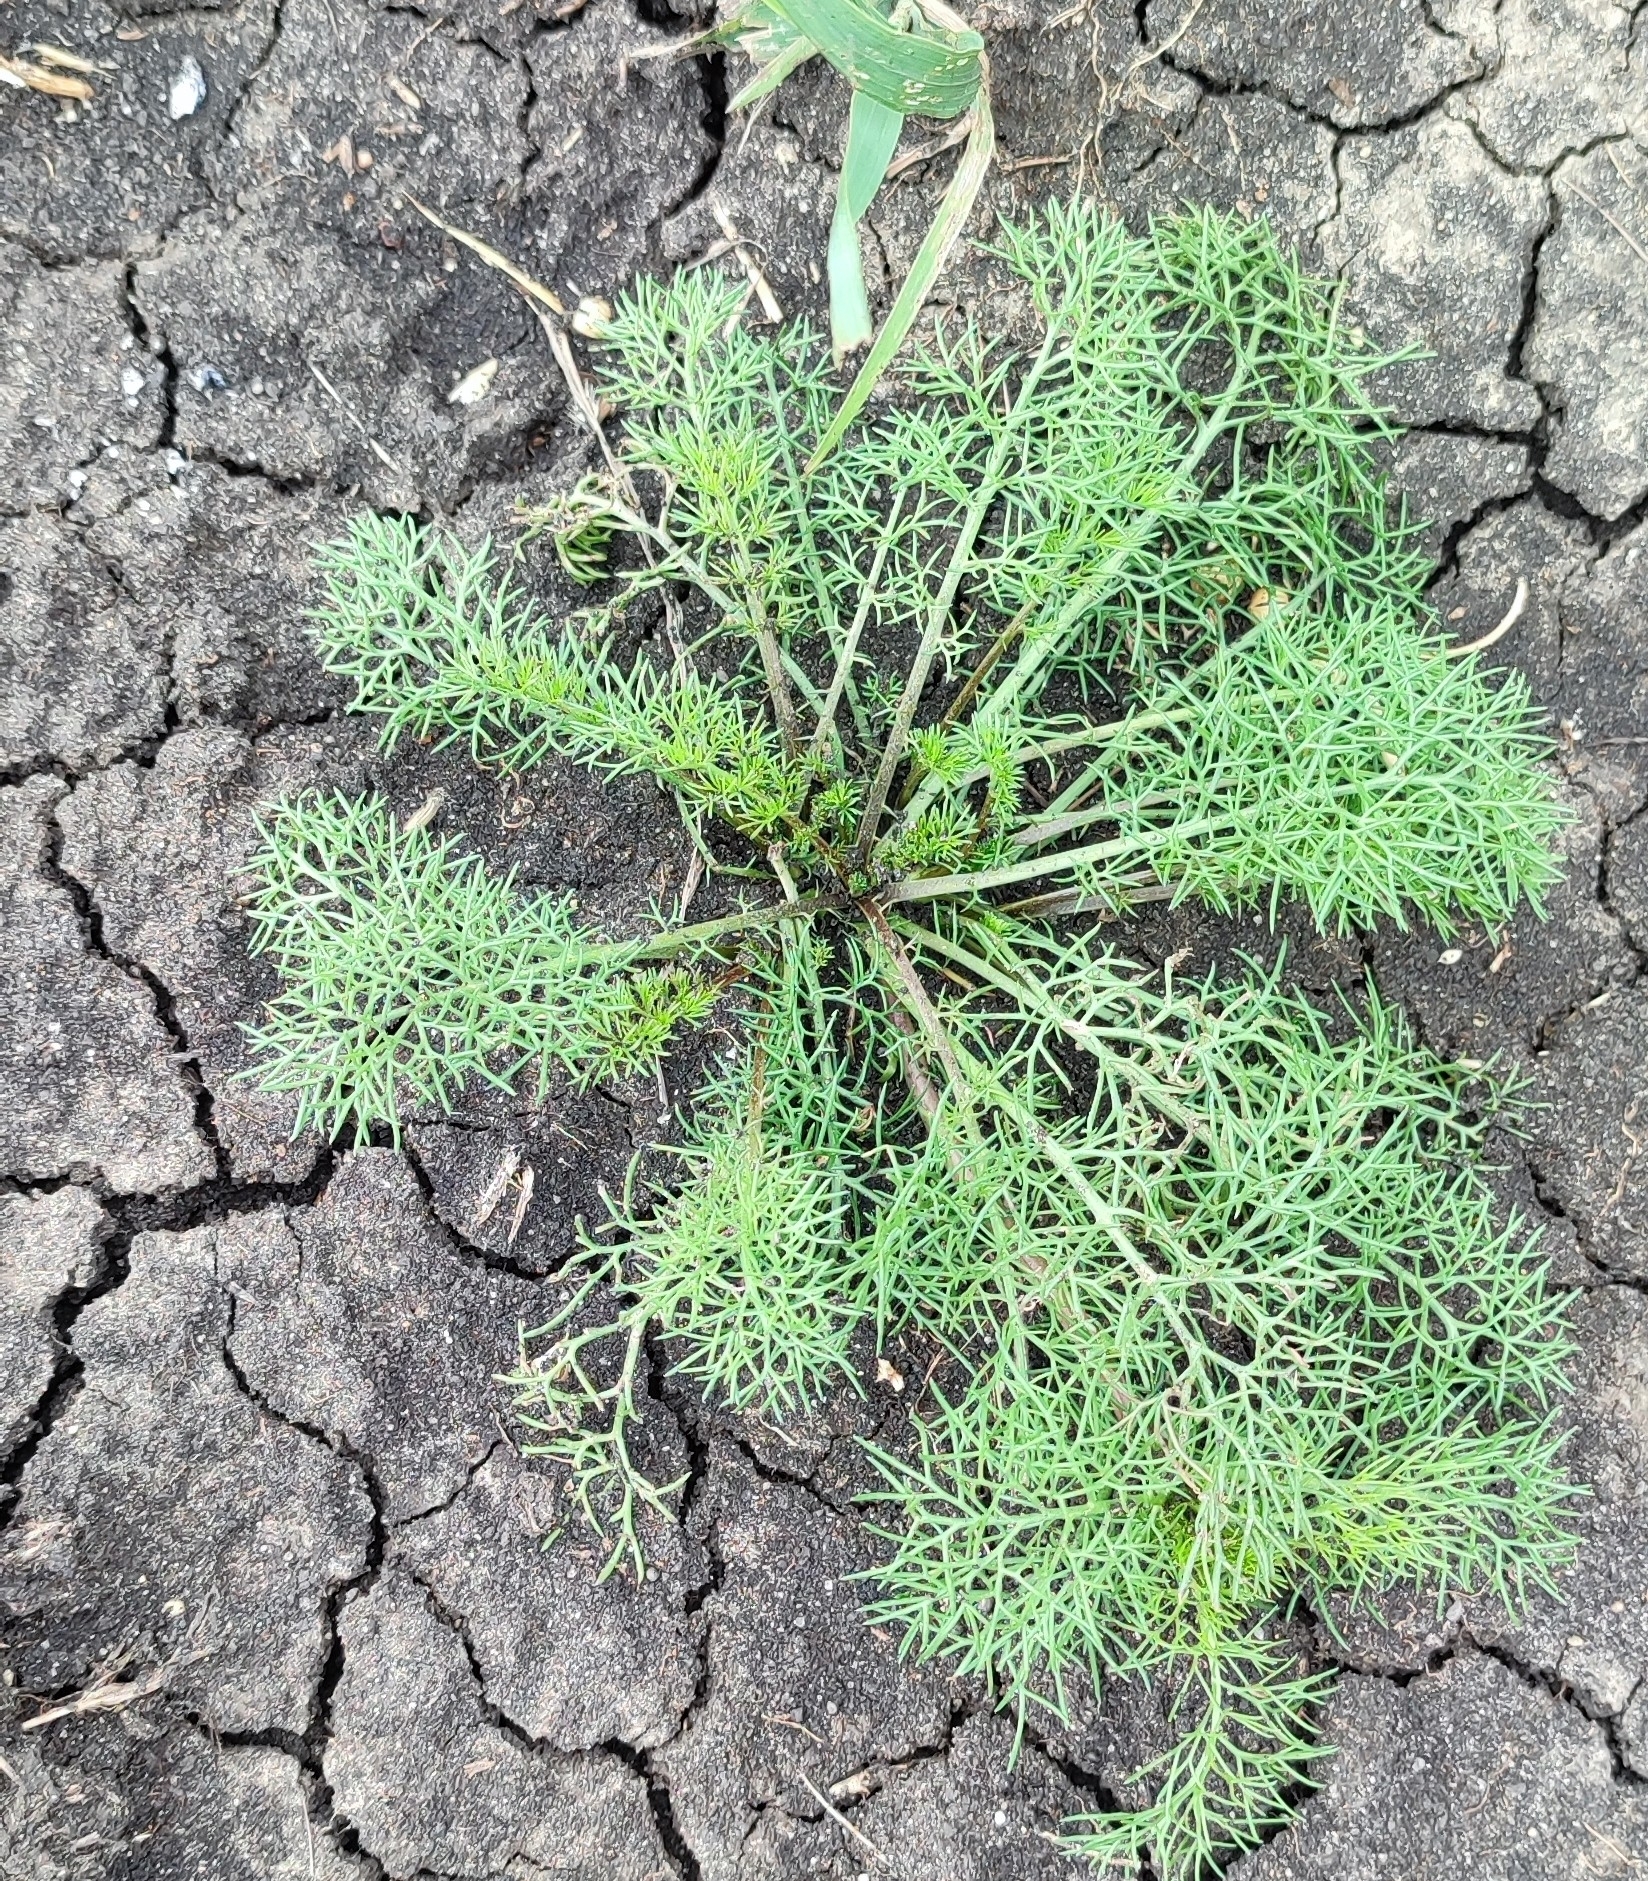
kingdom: Plantae
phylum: Tracheophyta
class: Magnoliopsida
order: Asterales
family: Asteraceae
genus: Tripleurospermum
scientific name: Tripleurospermum inodorum
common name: Scentless mayweed
